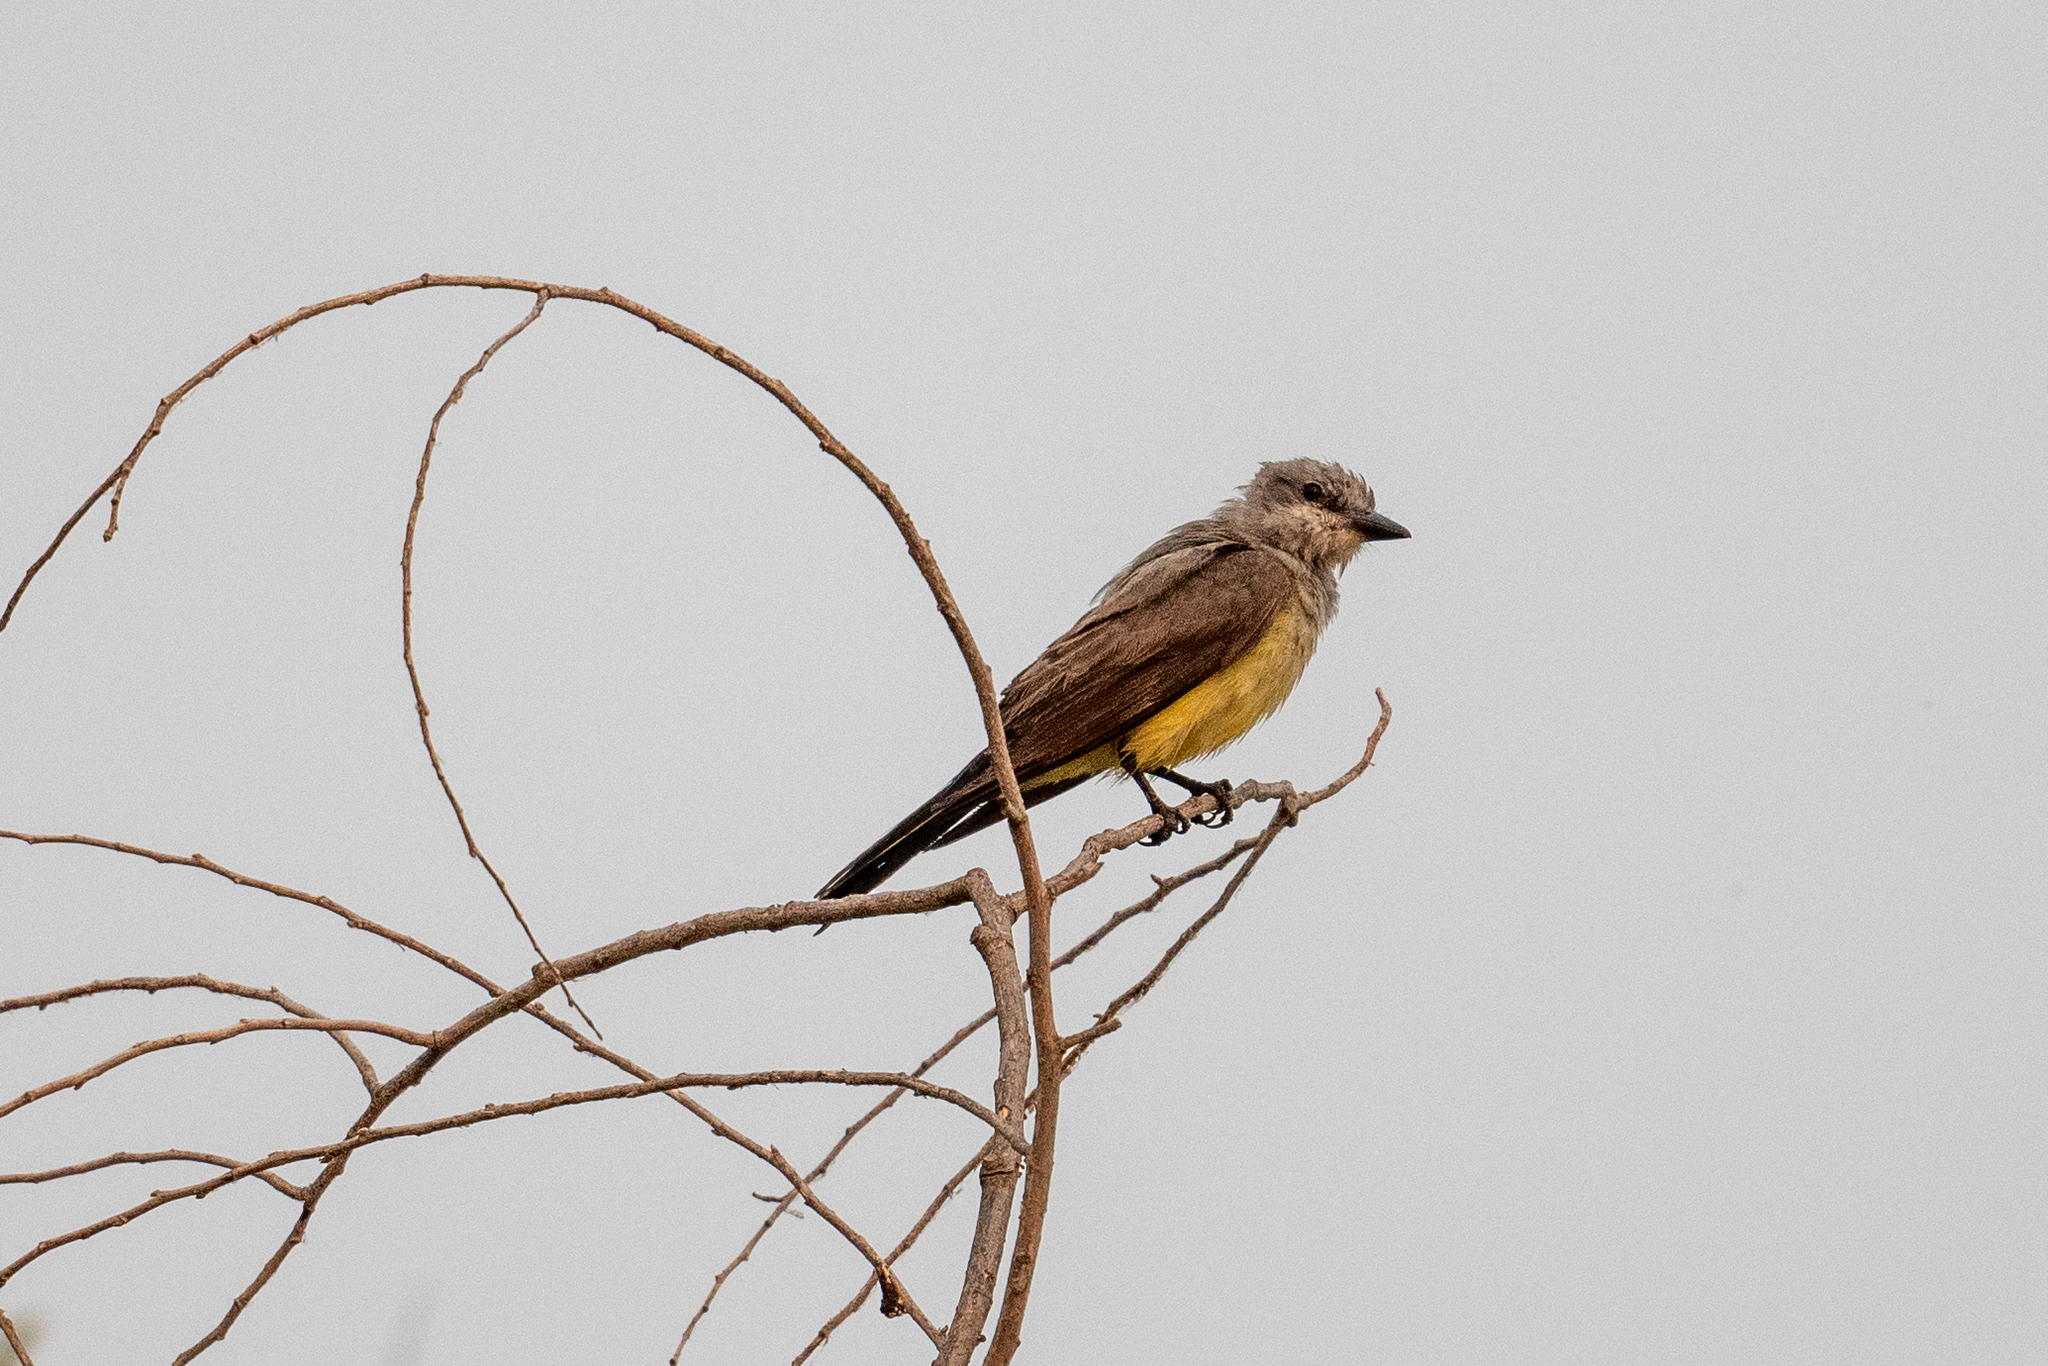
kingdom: Animalia
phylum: Chordata
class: Aves
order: Passeriformes
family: Tyrannidae
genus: Tyrannus
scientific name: Tyrannus verticalis
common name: Western kingbird
